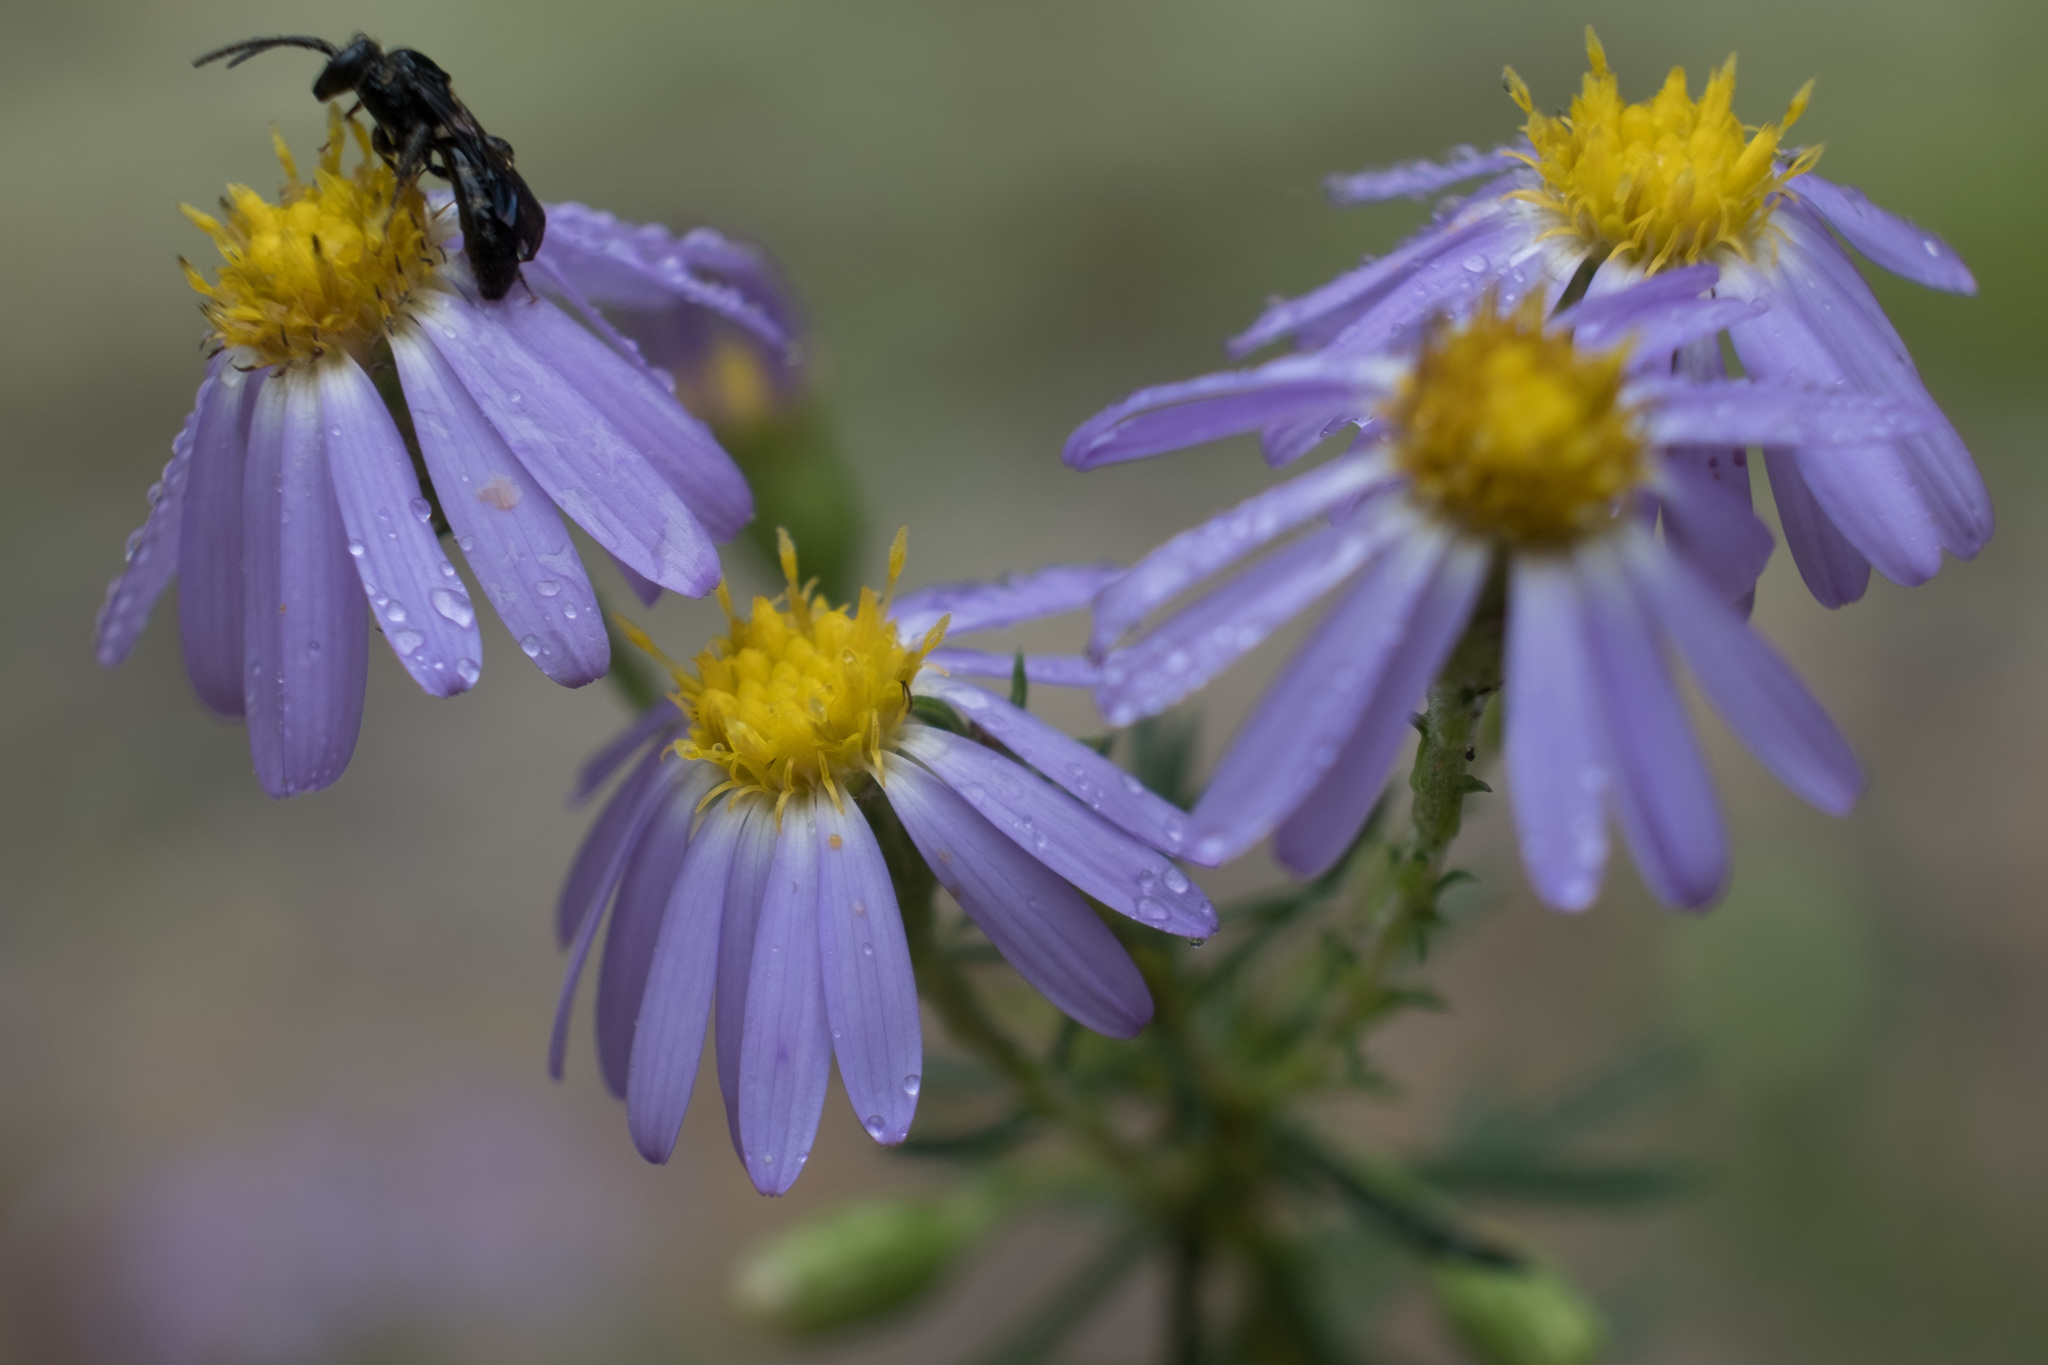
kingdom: Animalia
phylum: Arthropoda
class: Insecta
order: Hymenoptera
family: Halictidae
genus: Lasioglossum
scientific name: Lasioglossum fuscipenne
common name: Brown-winged sweat bee
